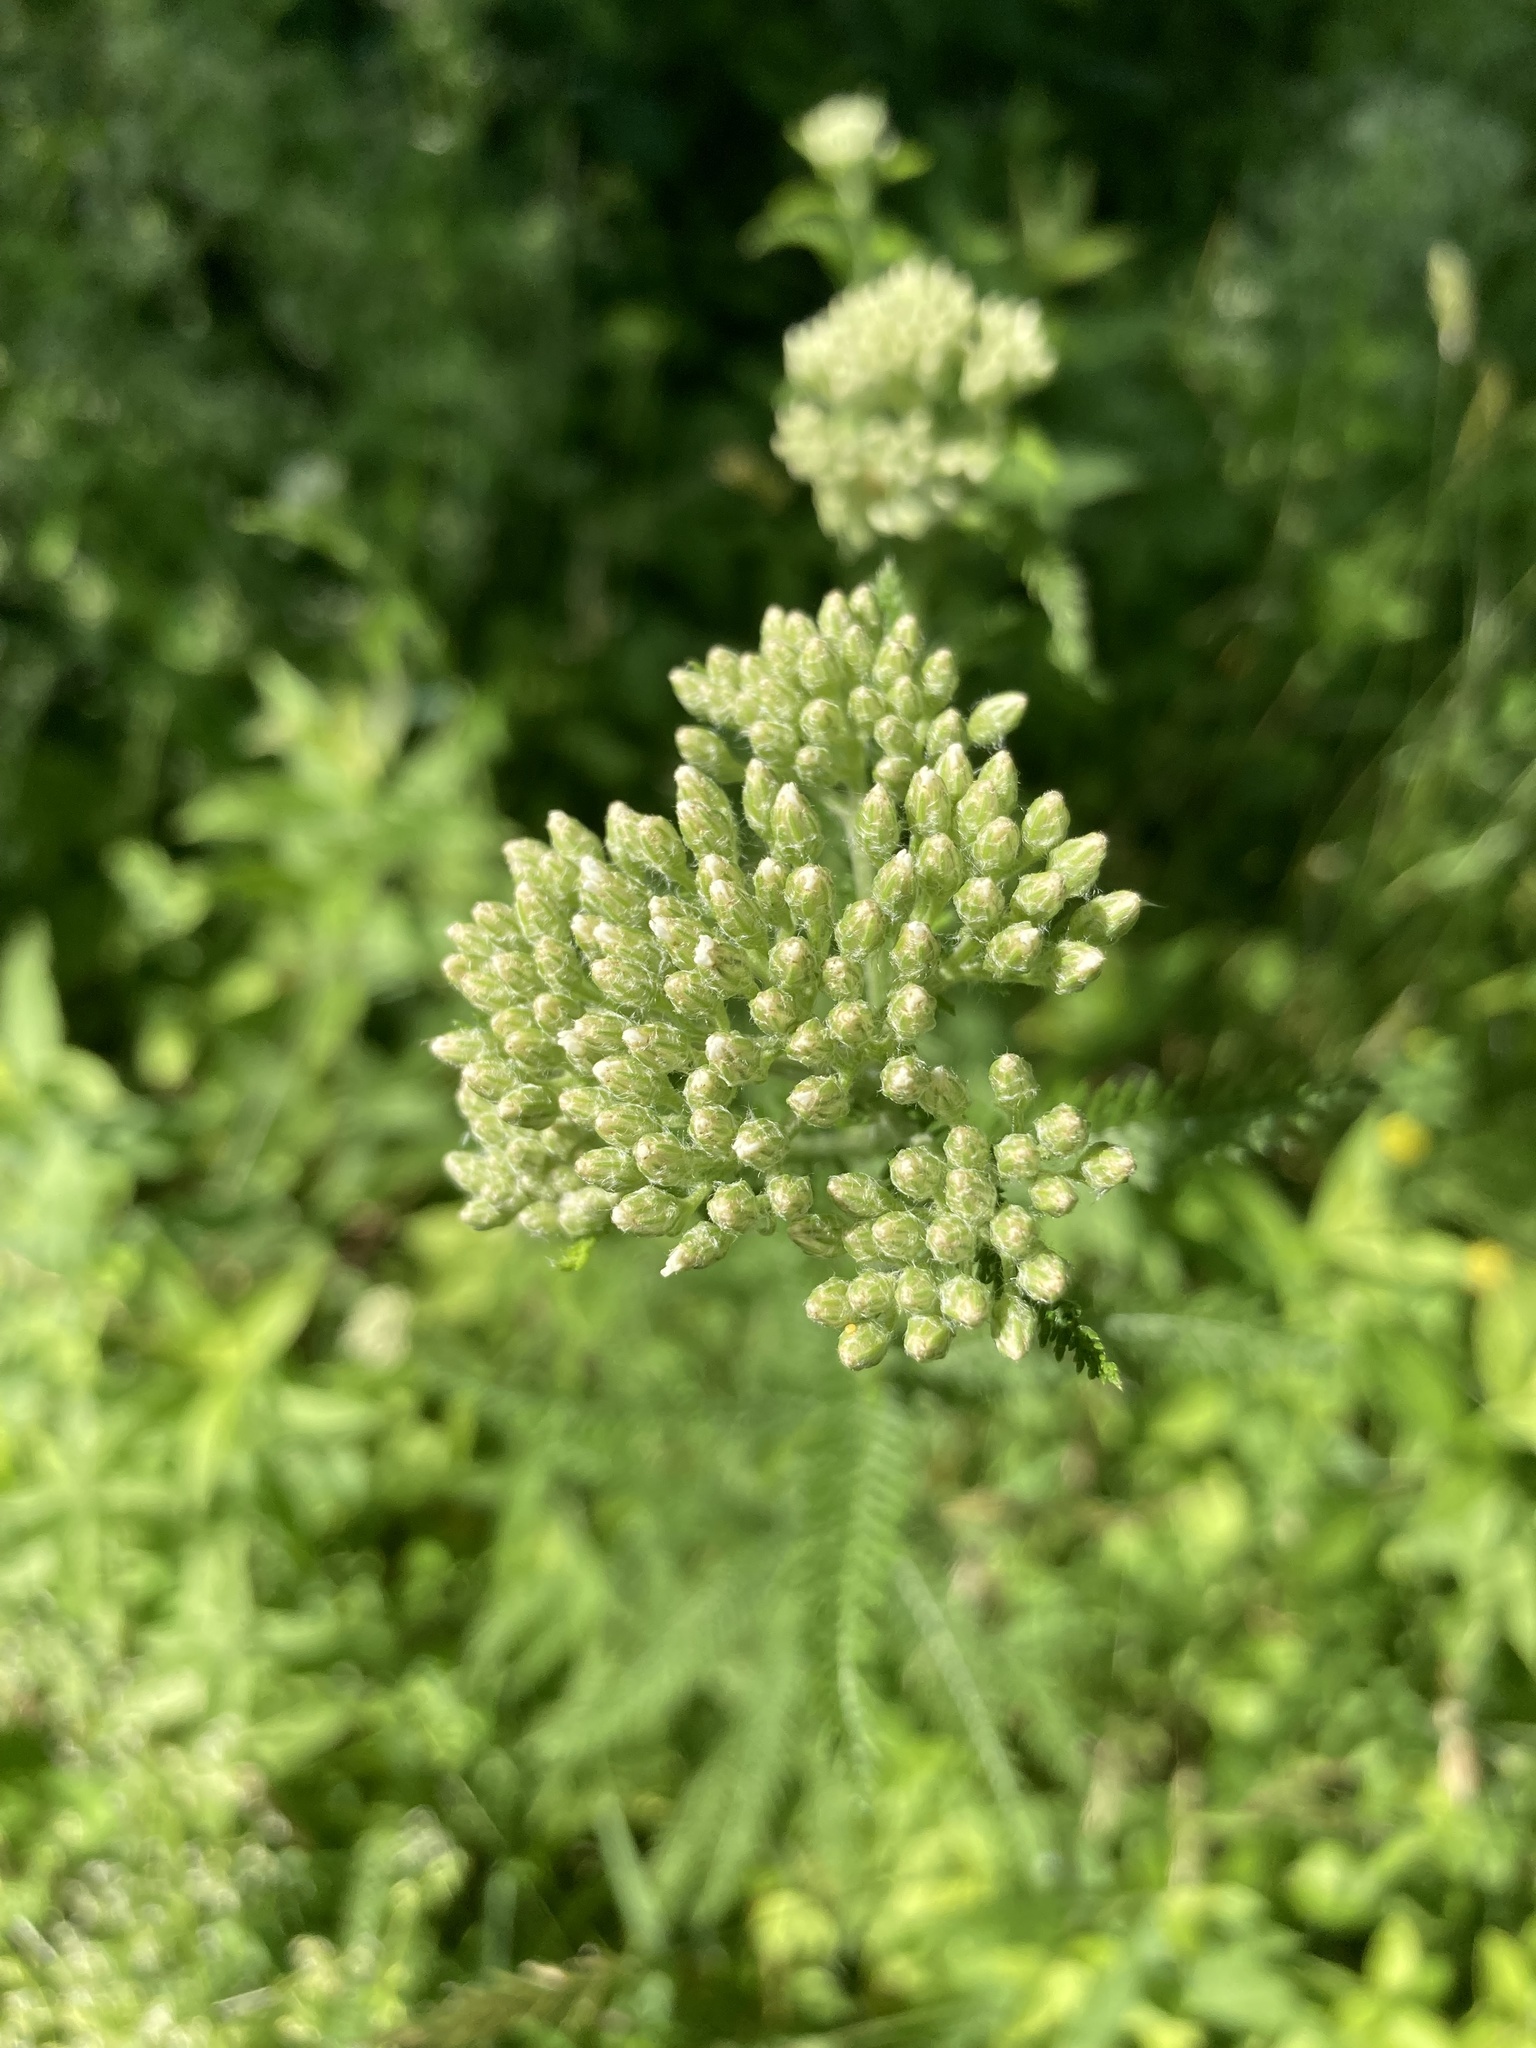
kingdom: Plantae
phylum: Tracheophyta
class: Magnoliopsida
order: Asterales
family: Asteraceae
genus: Achillea
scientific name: Achillea millefolium
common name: Yarrow
